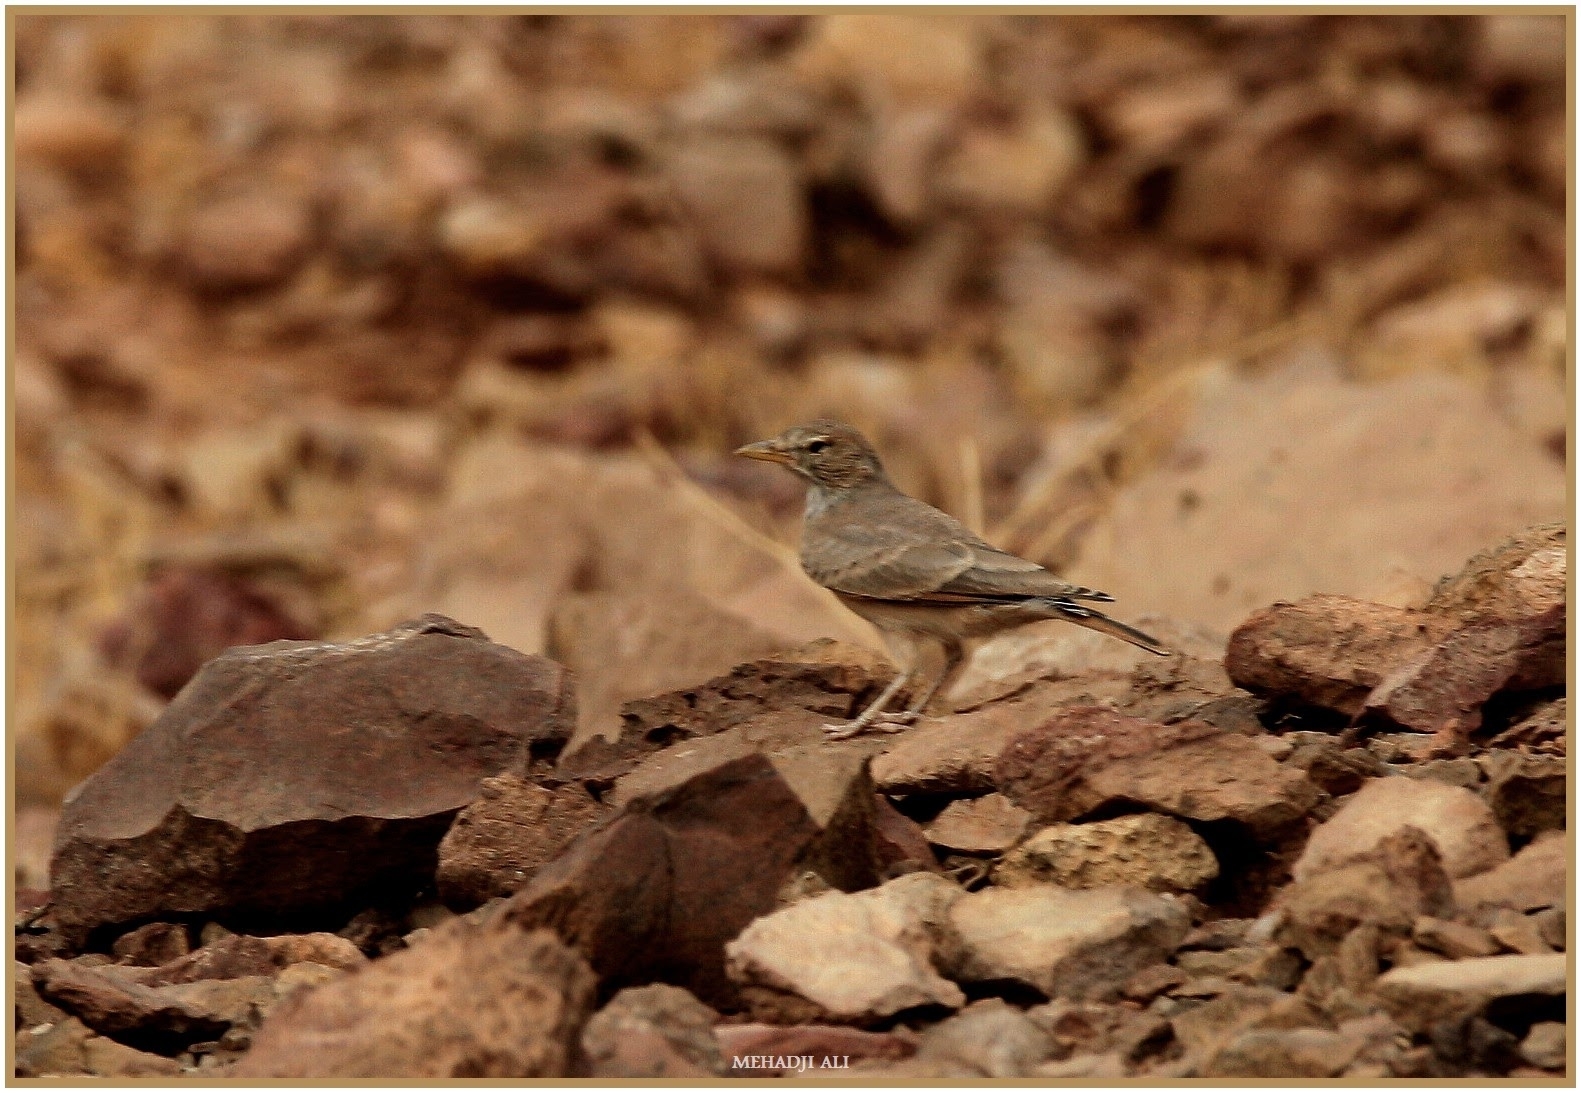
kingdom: Animalia
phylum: Chordata
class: Aves
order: Passeriformes
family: Alaudidae
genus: Ammomanes
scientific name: Ammomanes deserti
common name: Desert lark
